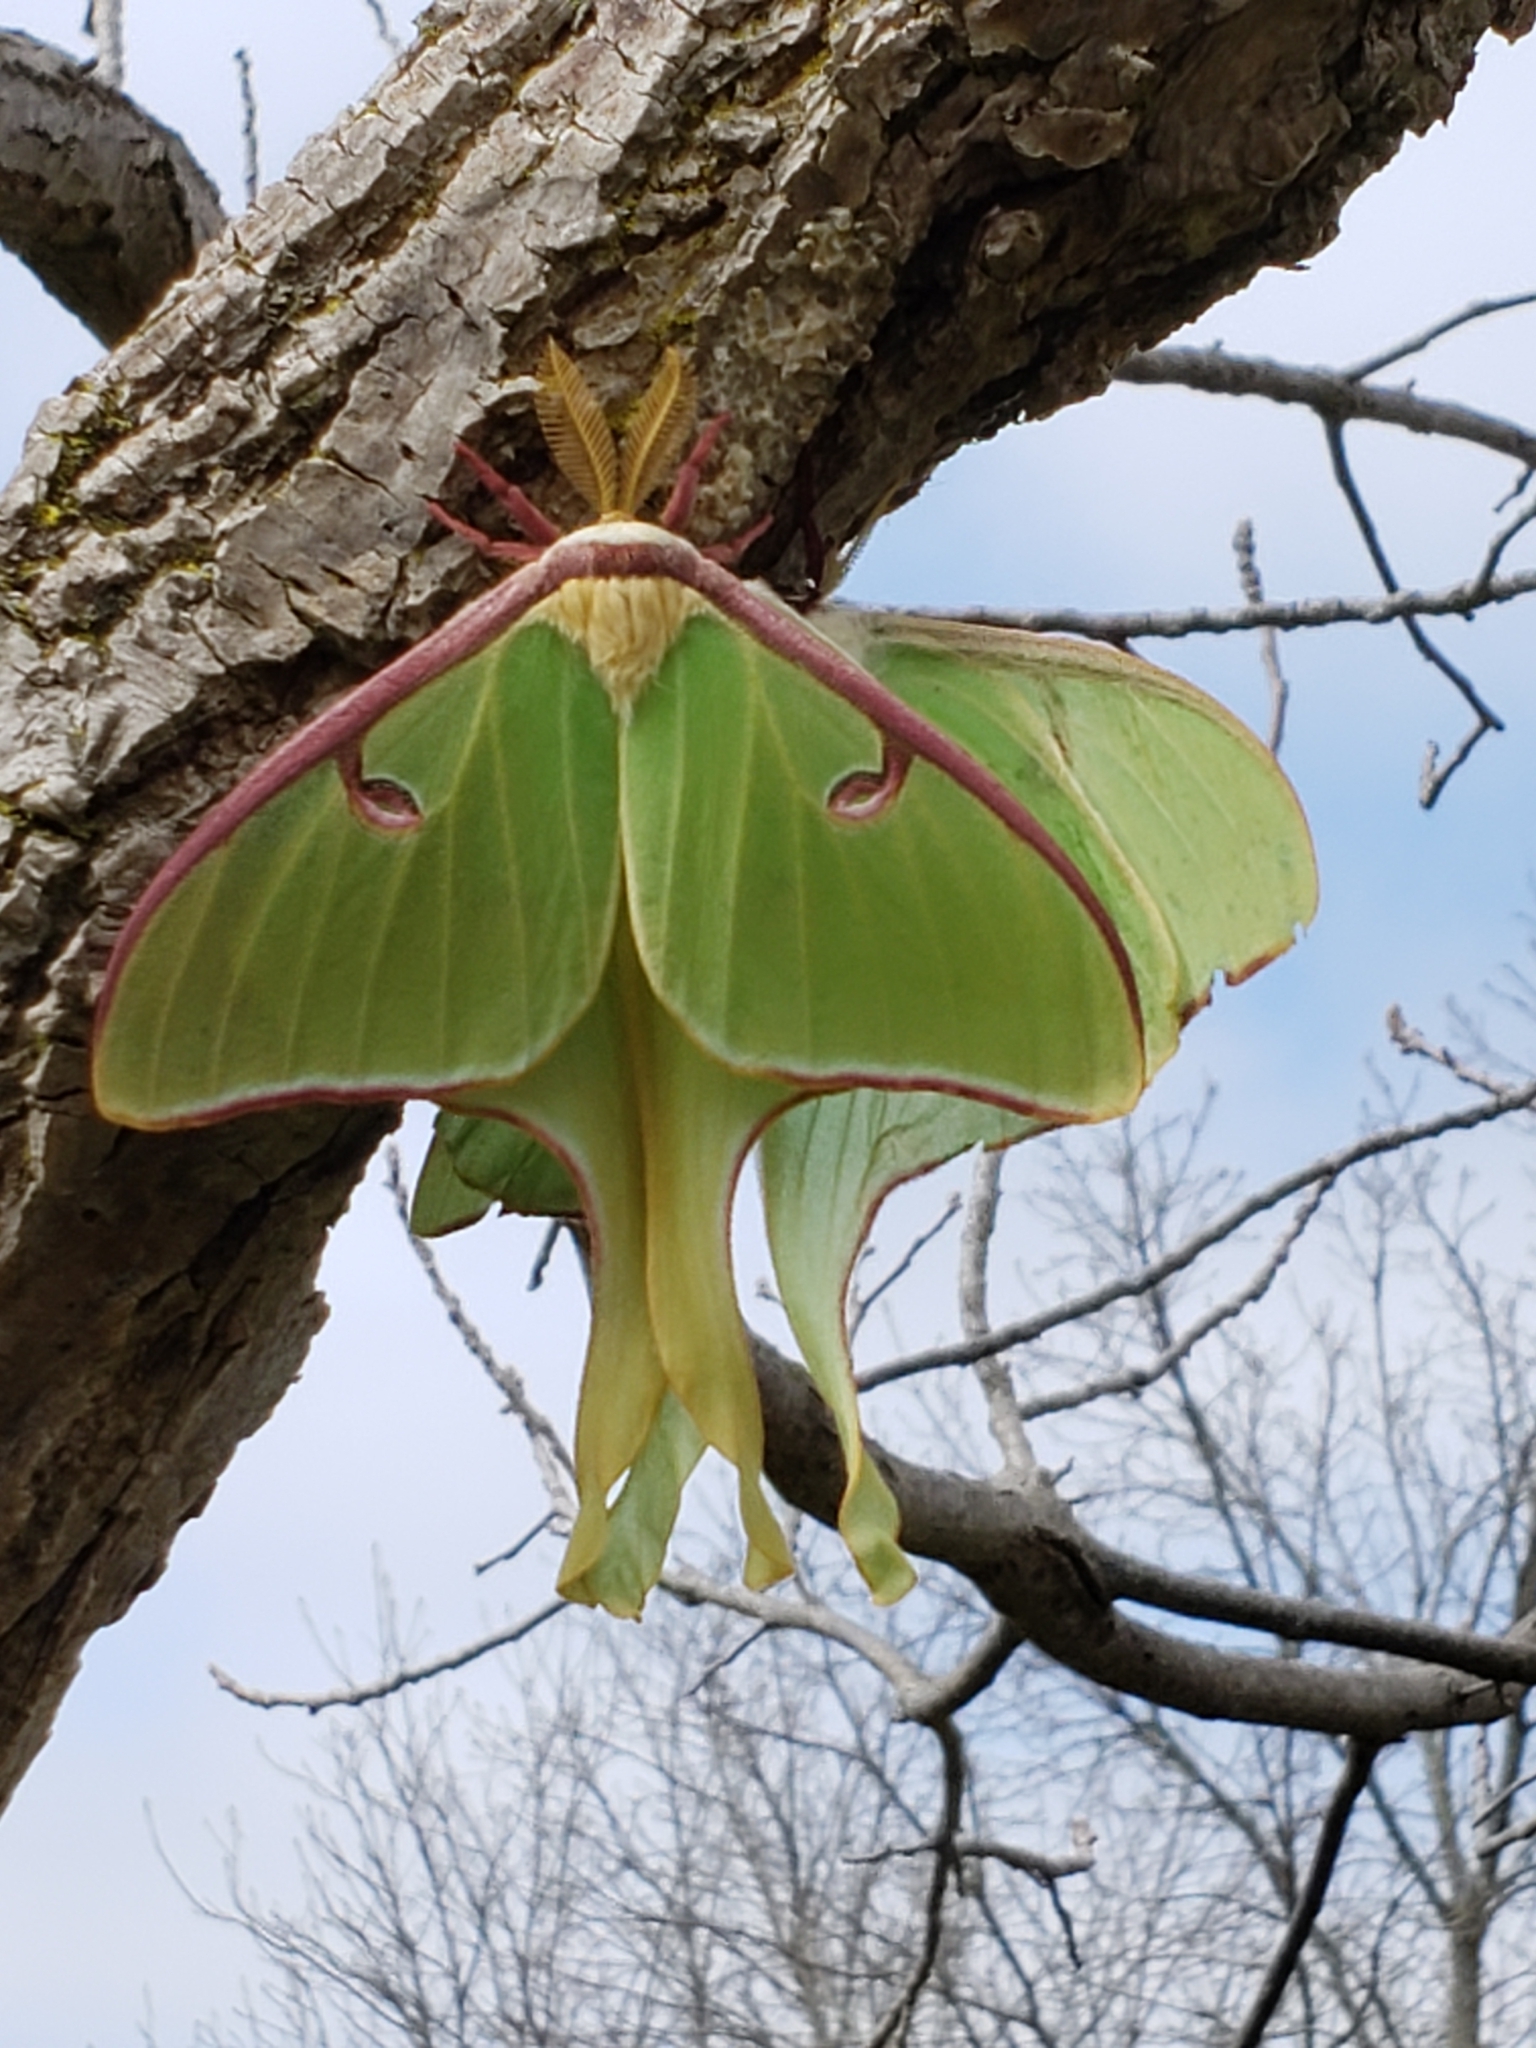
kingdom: Animalia
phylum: Arthropoda
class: Insecta
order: Lepidoptera
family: Saturniidae
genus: Actias
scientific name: Actias luna
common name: Luna moth
